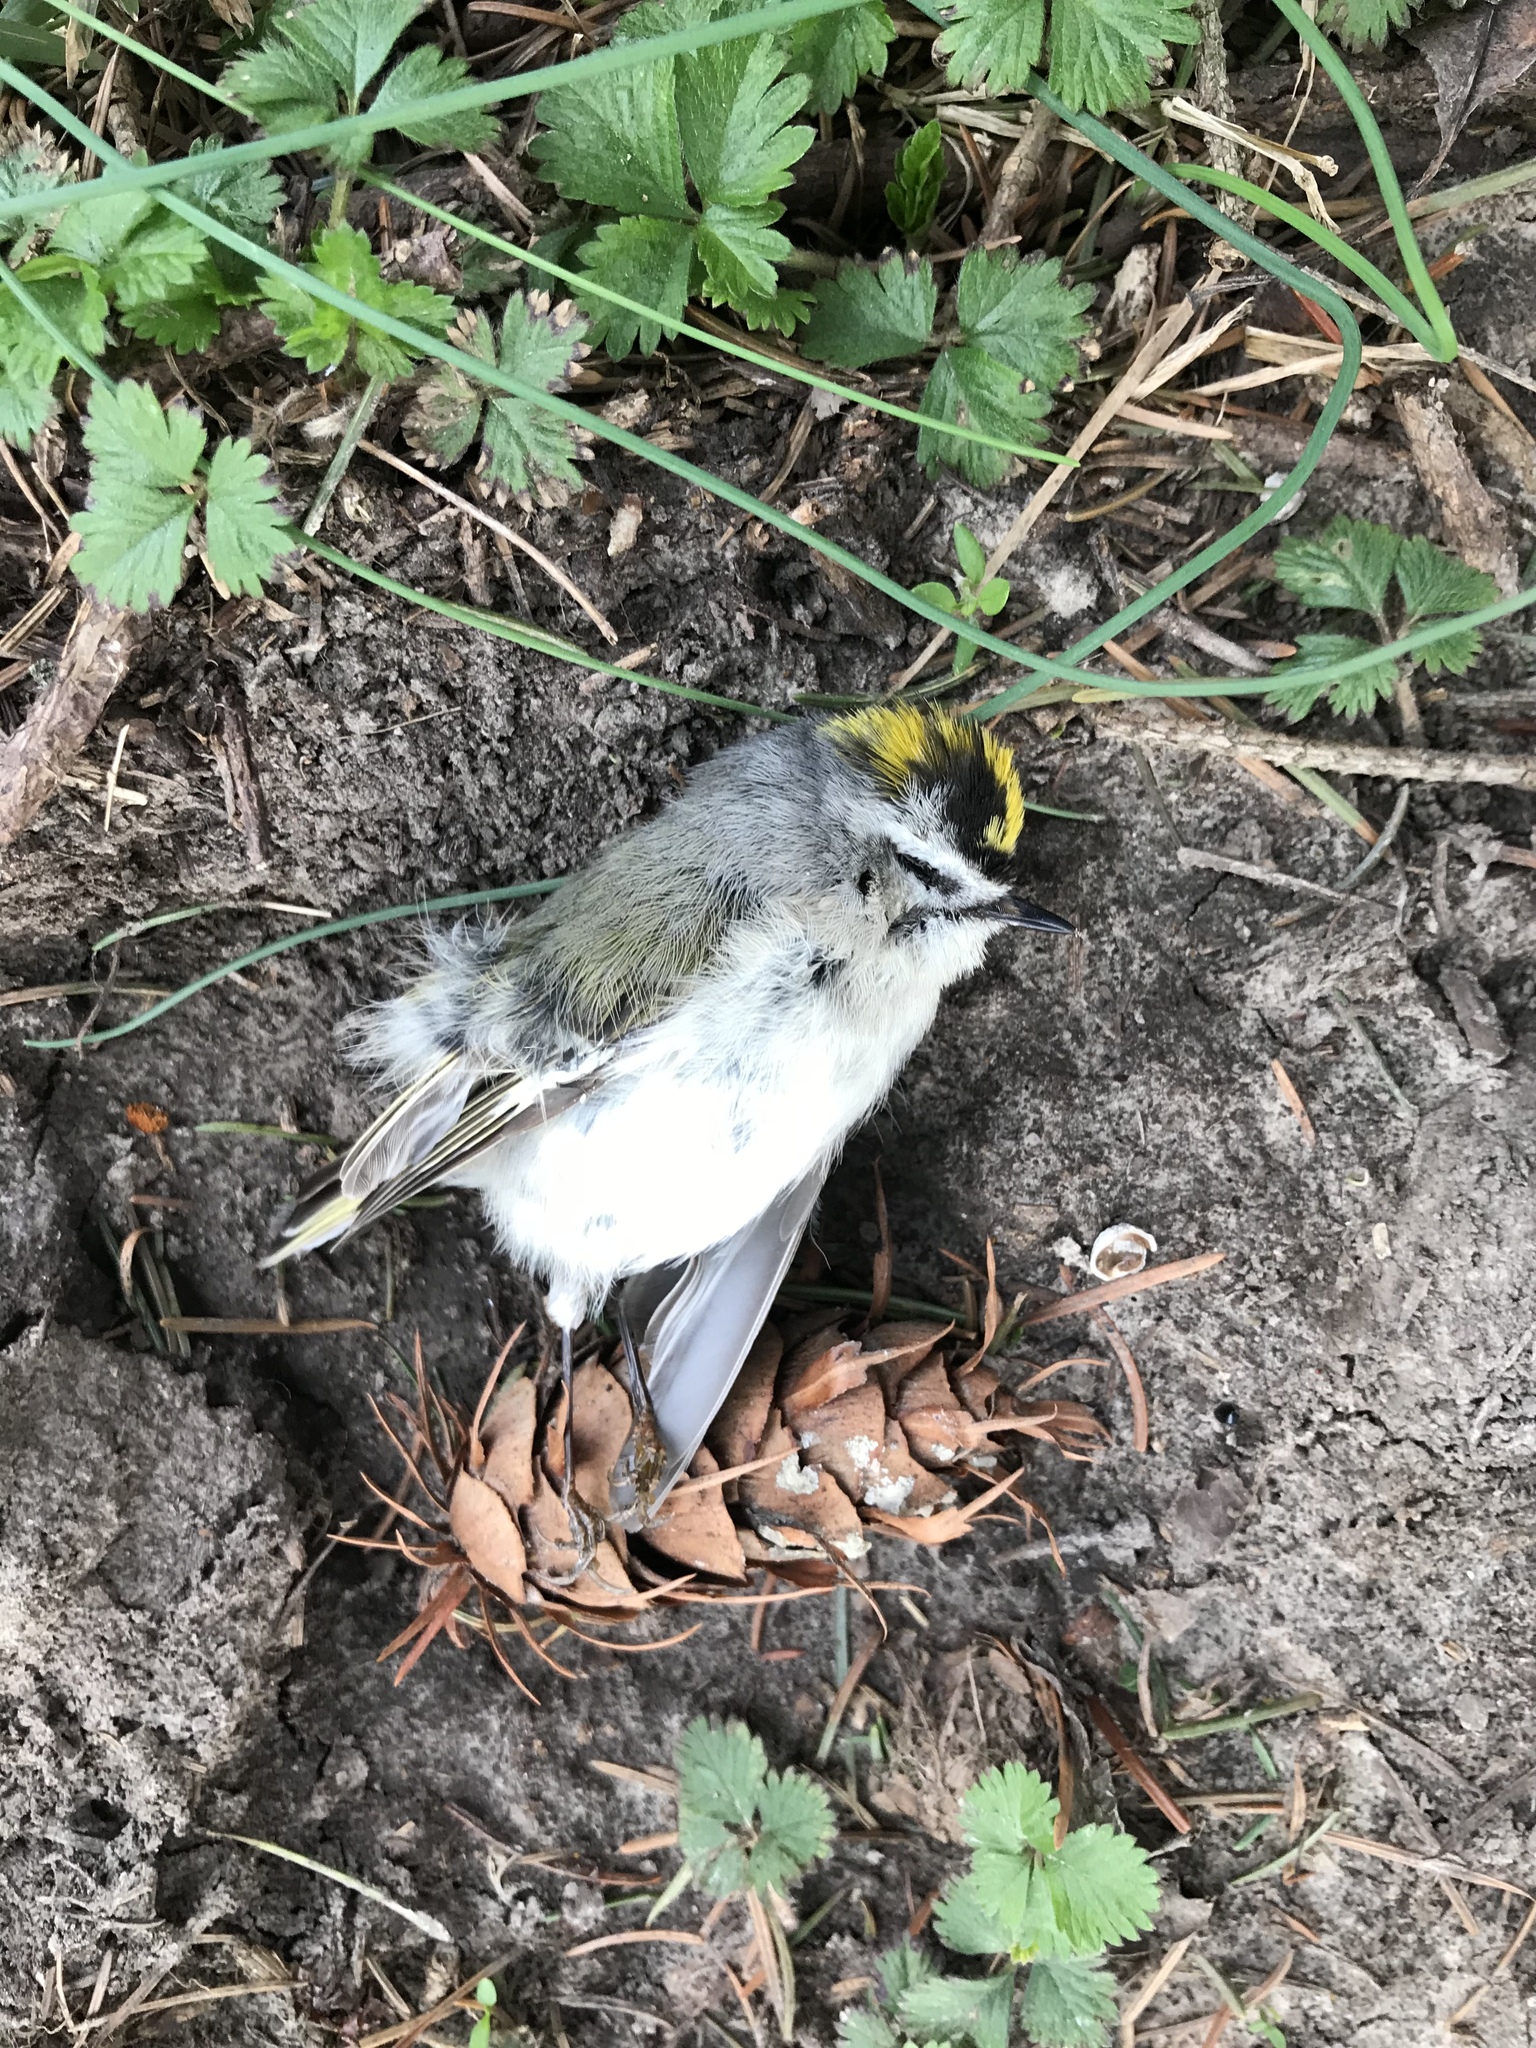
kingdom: Animalia
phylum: Chordata
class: Aves
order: Passeriformes
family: Regulidae
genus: Regulus
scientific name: Regulus satrapa
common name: Golden-crowned kinglet
